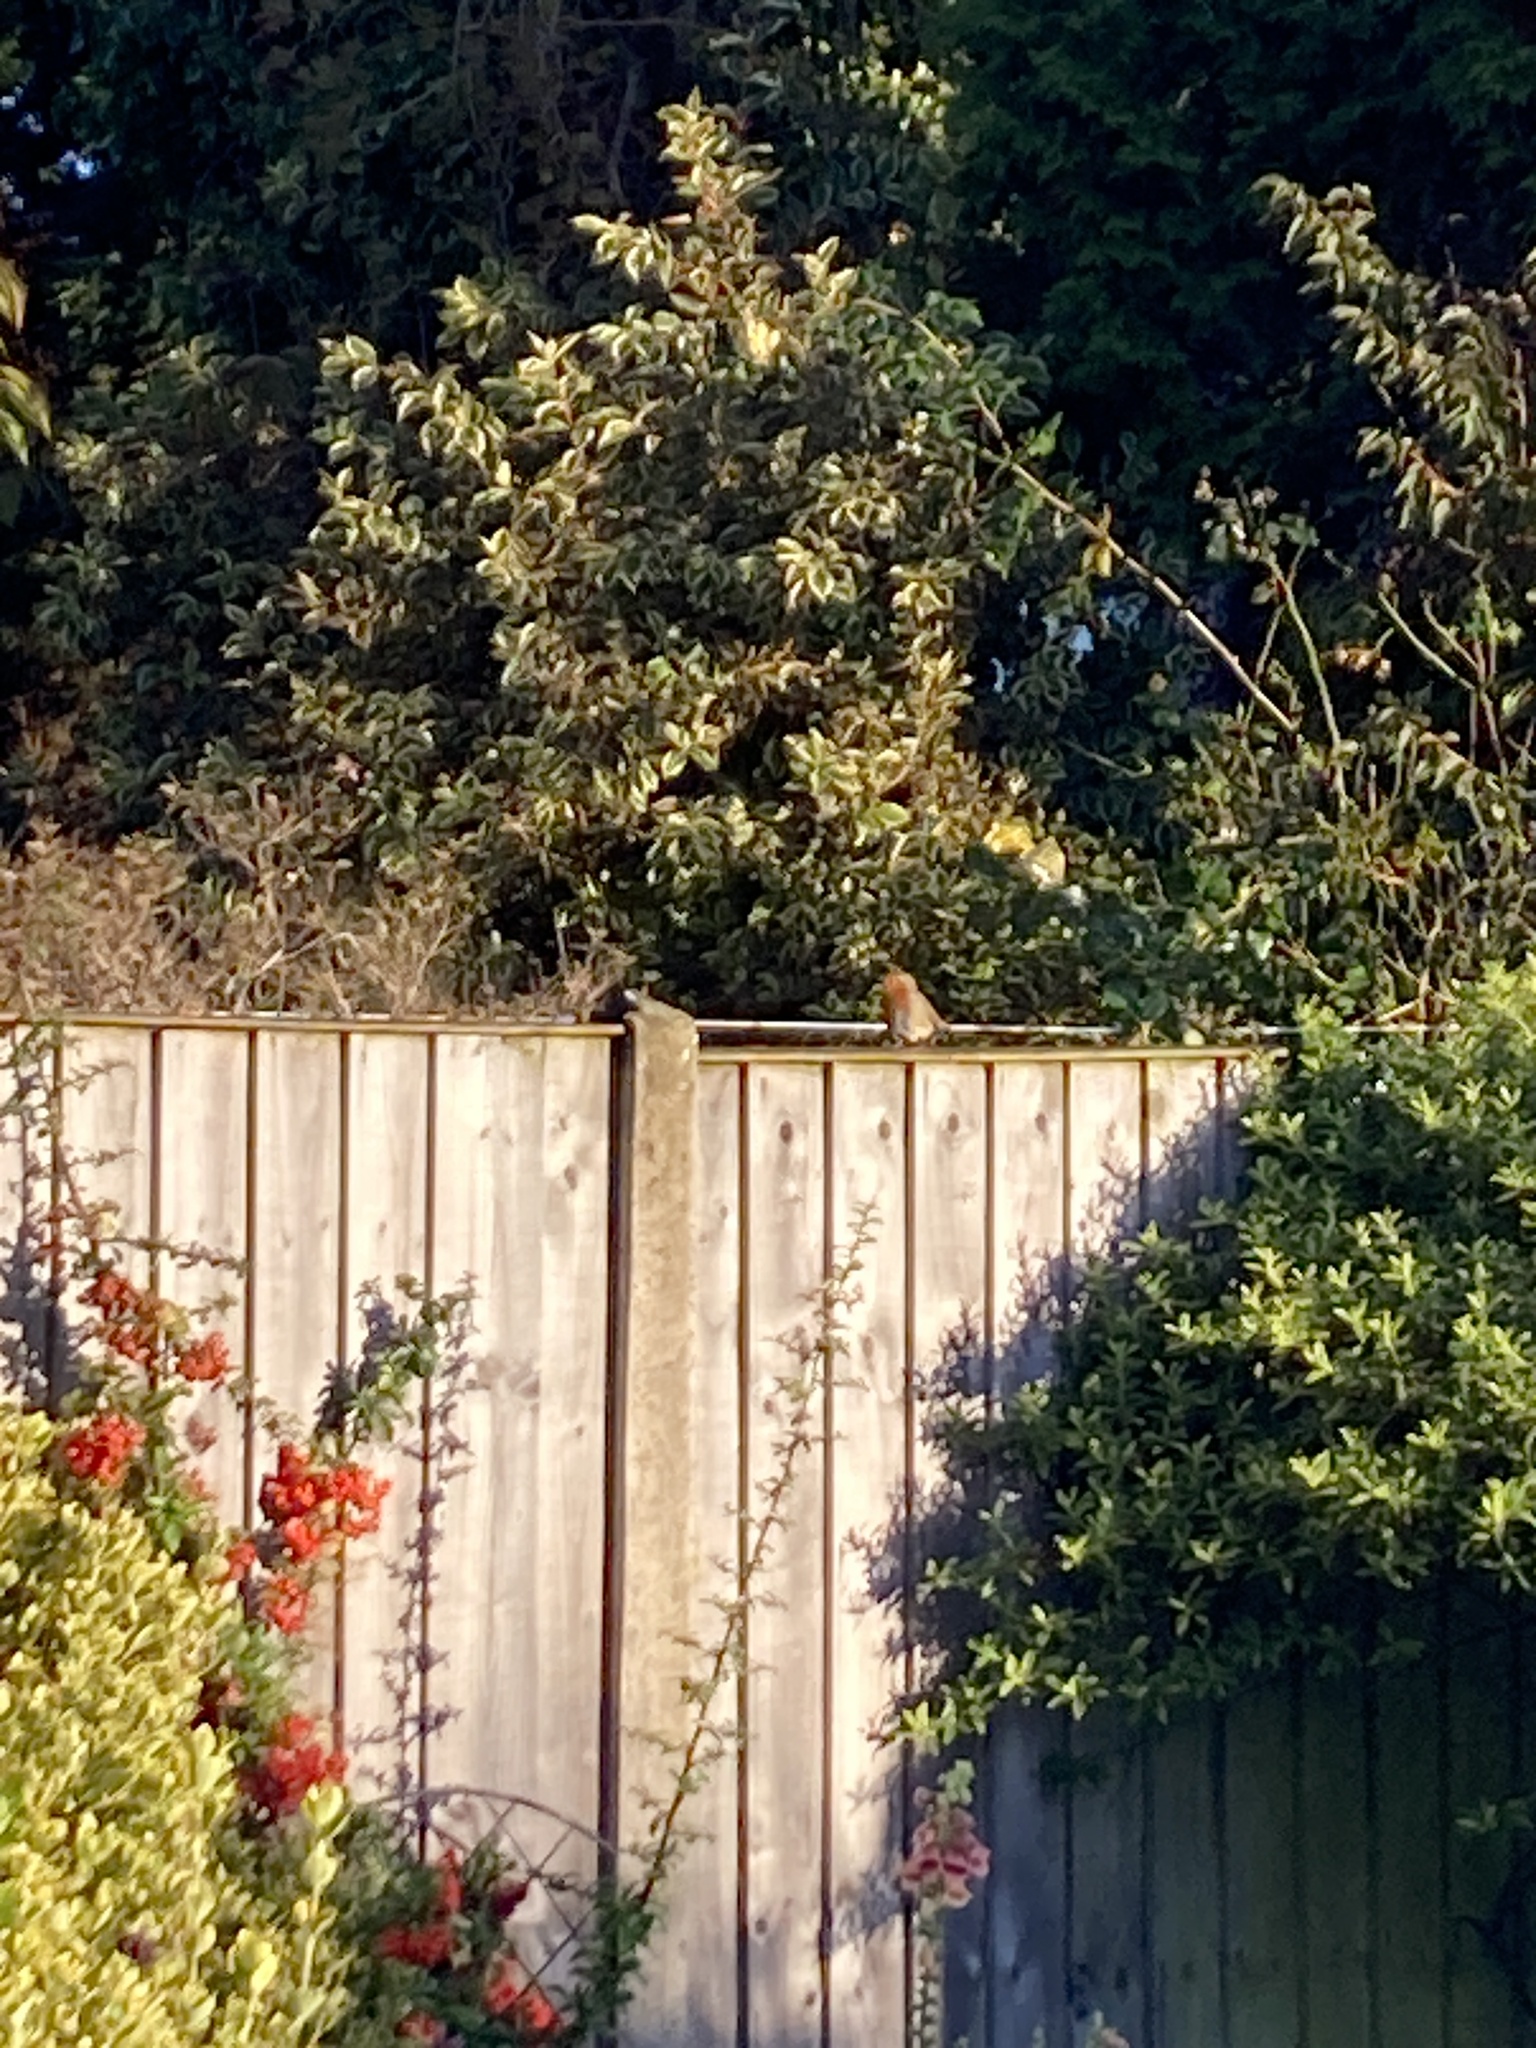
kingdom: Animalia
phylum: Chordata
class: Aves
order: Passeriformes
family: Muscicapidae
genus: Erithacus
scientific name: Erithacus rubecula
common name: European robin
